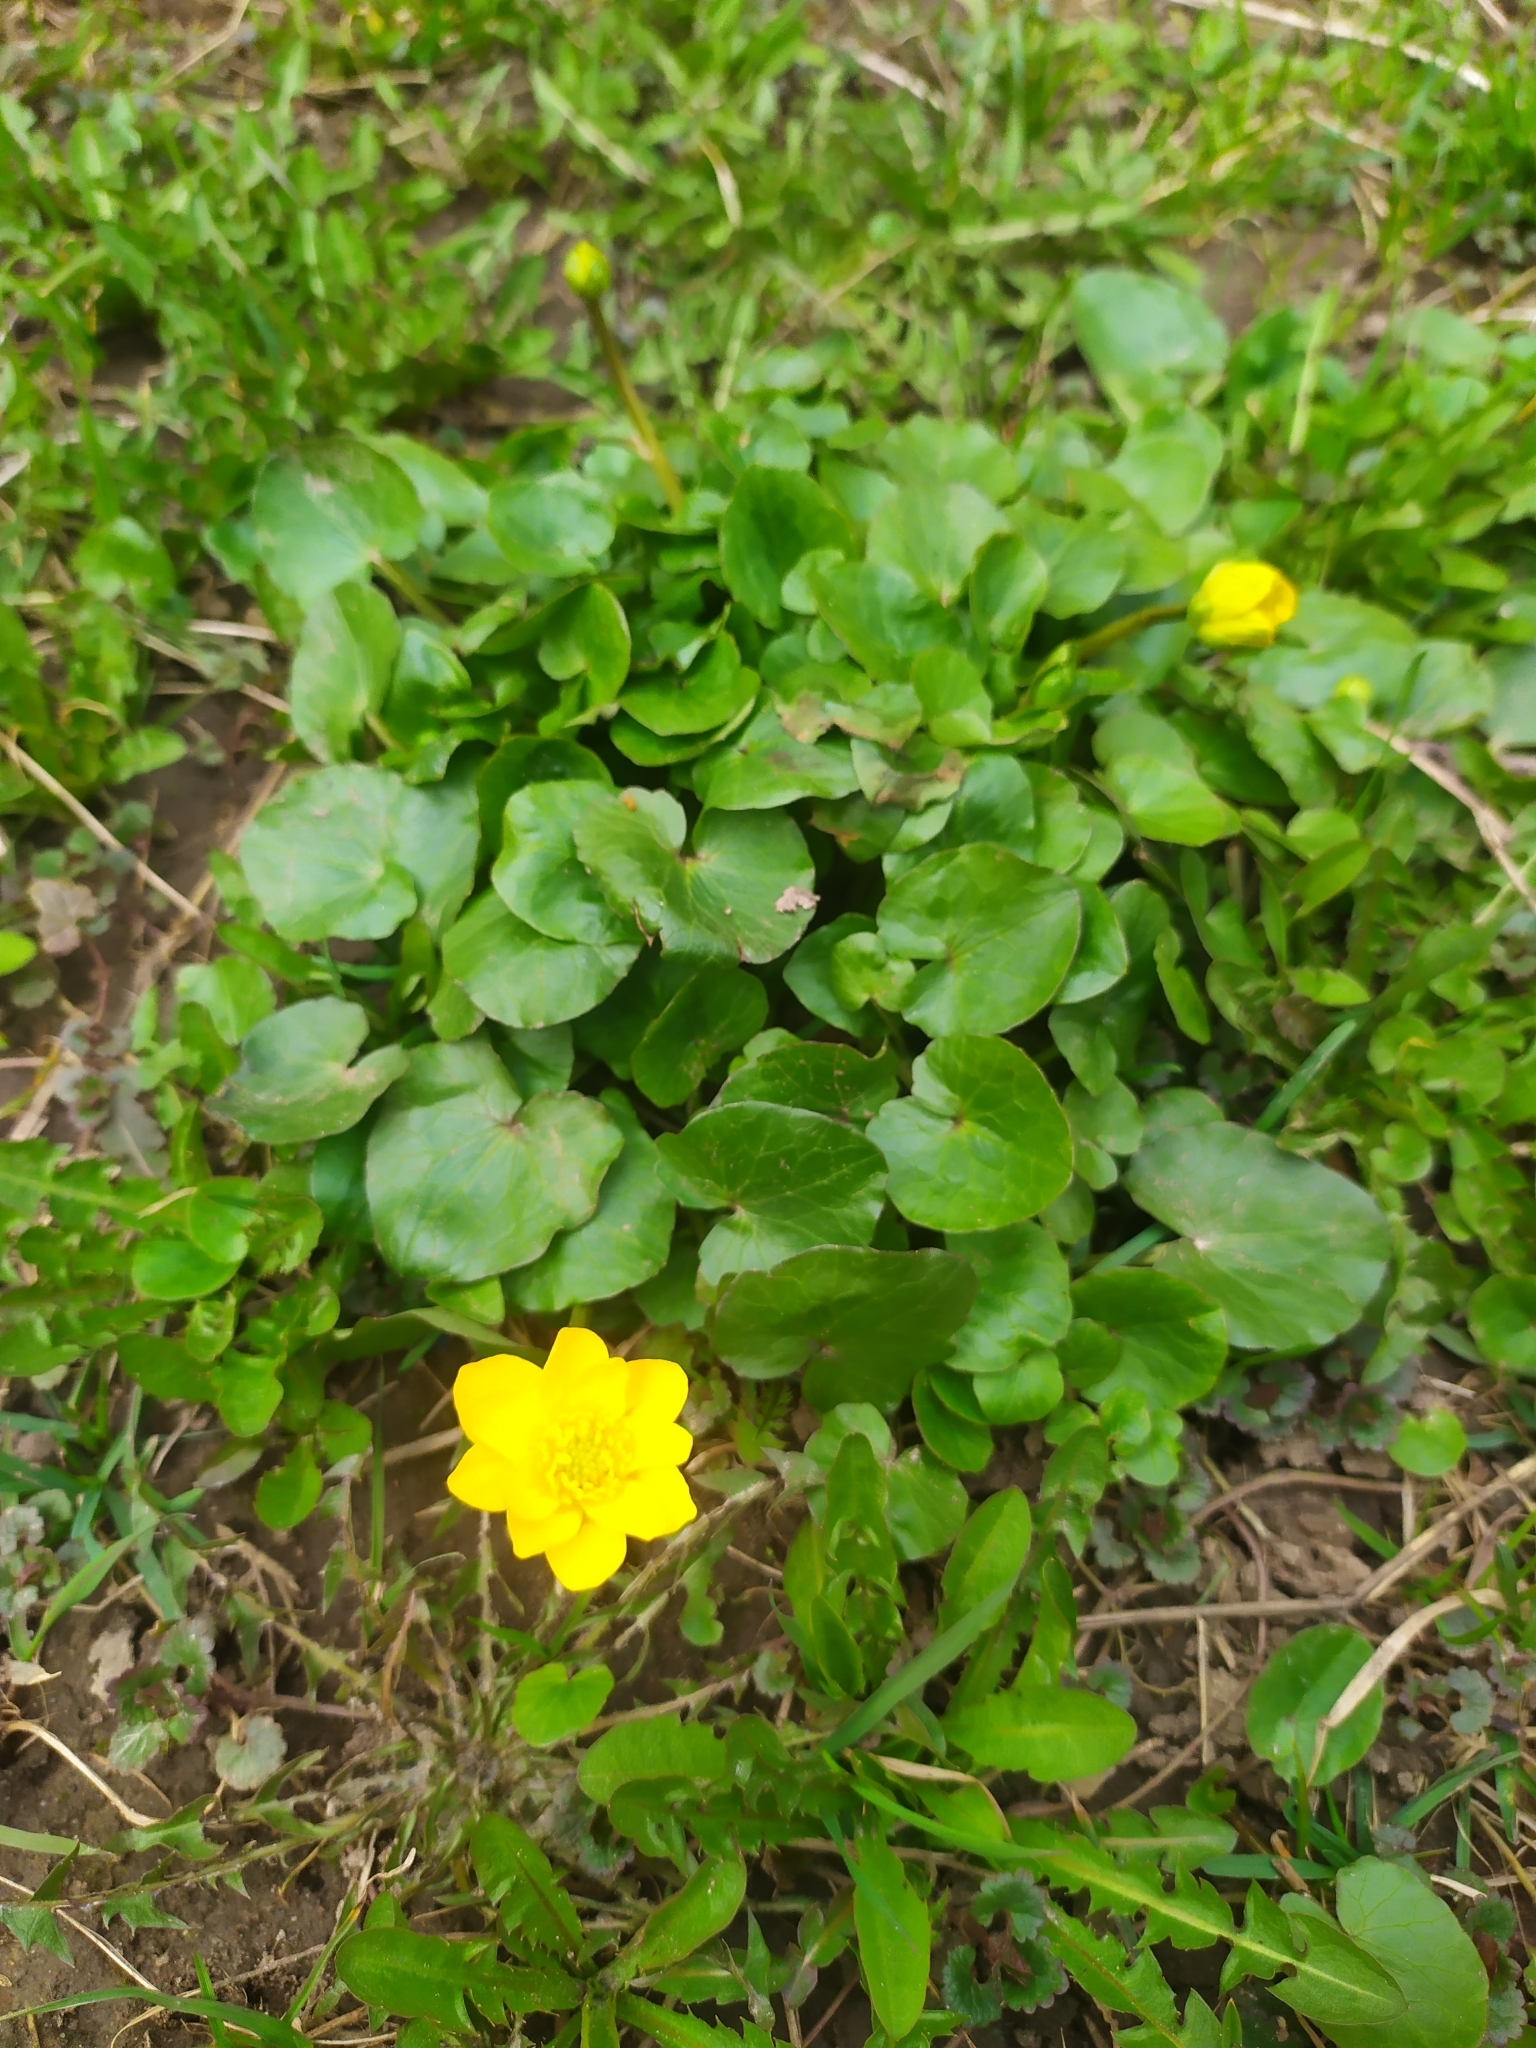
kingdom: Plantae
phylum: Tracheophyta
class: Magnoliopsida
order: Ranunculales
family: Ranunculaceae
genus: Ficaria
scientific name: Ficaria verna
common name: Lesser celandine
